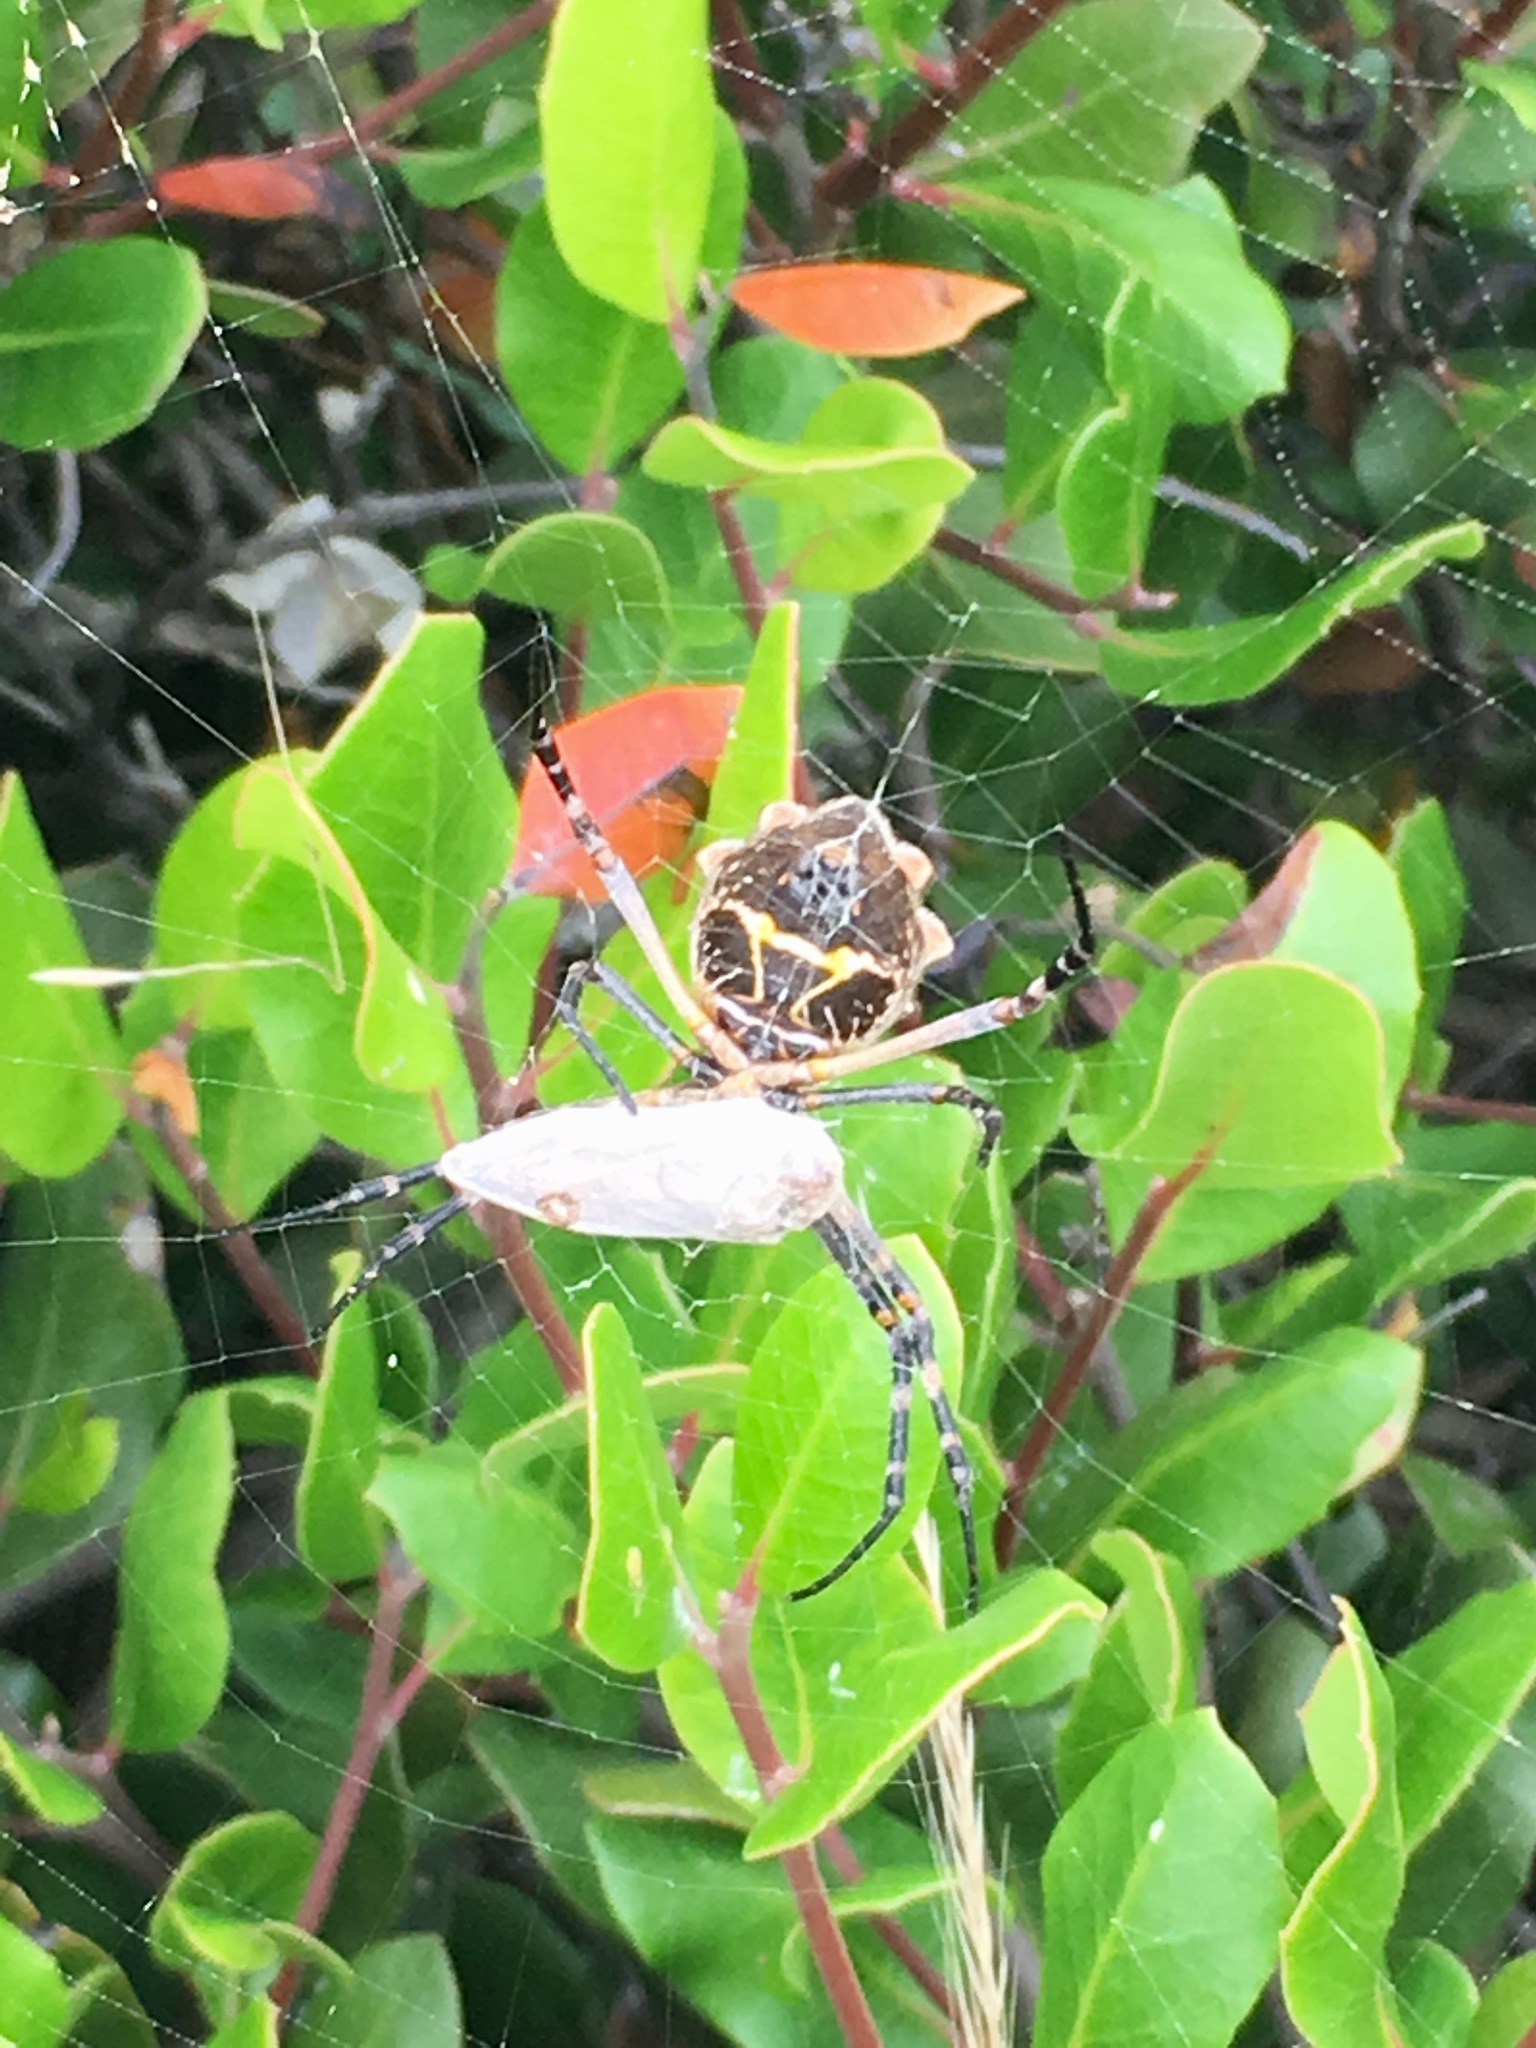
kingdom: Animalia
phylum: Arthropoda
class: Arachnida
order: Araneae
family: Araneidae
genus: Argiope
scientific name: Argiope argentata
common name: Orb weavers
